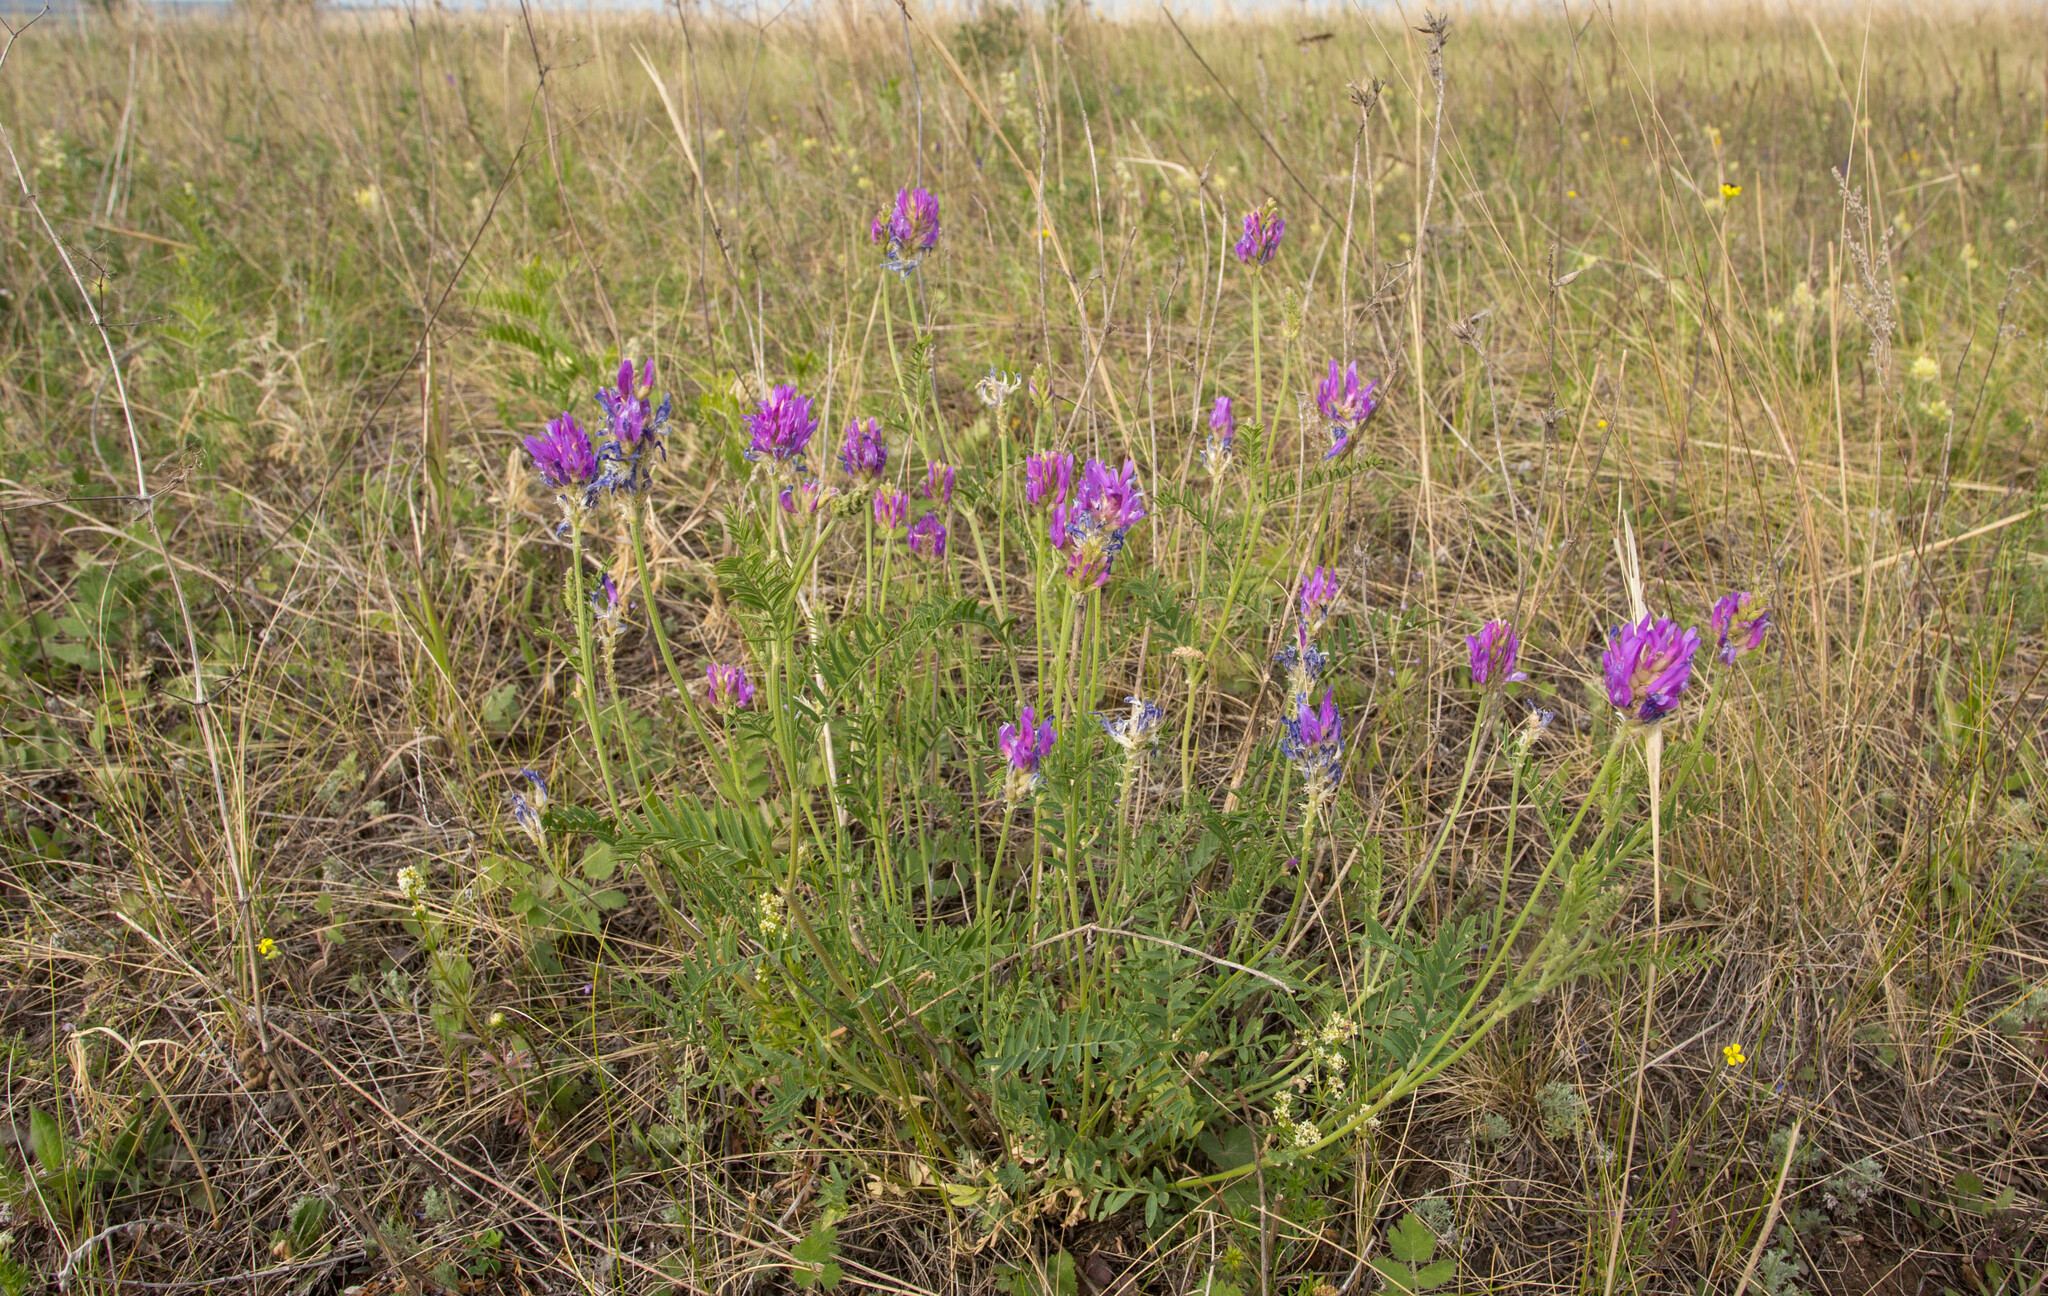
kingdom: Plantae
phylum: Tracheophyta
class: Magnoliopsida
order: Fabales
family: Fabaceae
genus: Astragalus
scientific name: Astragalus onobrychis
